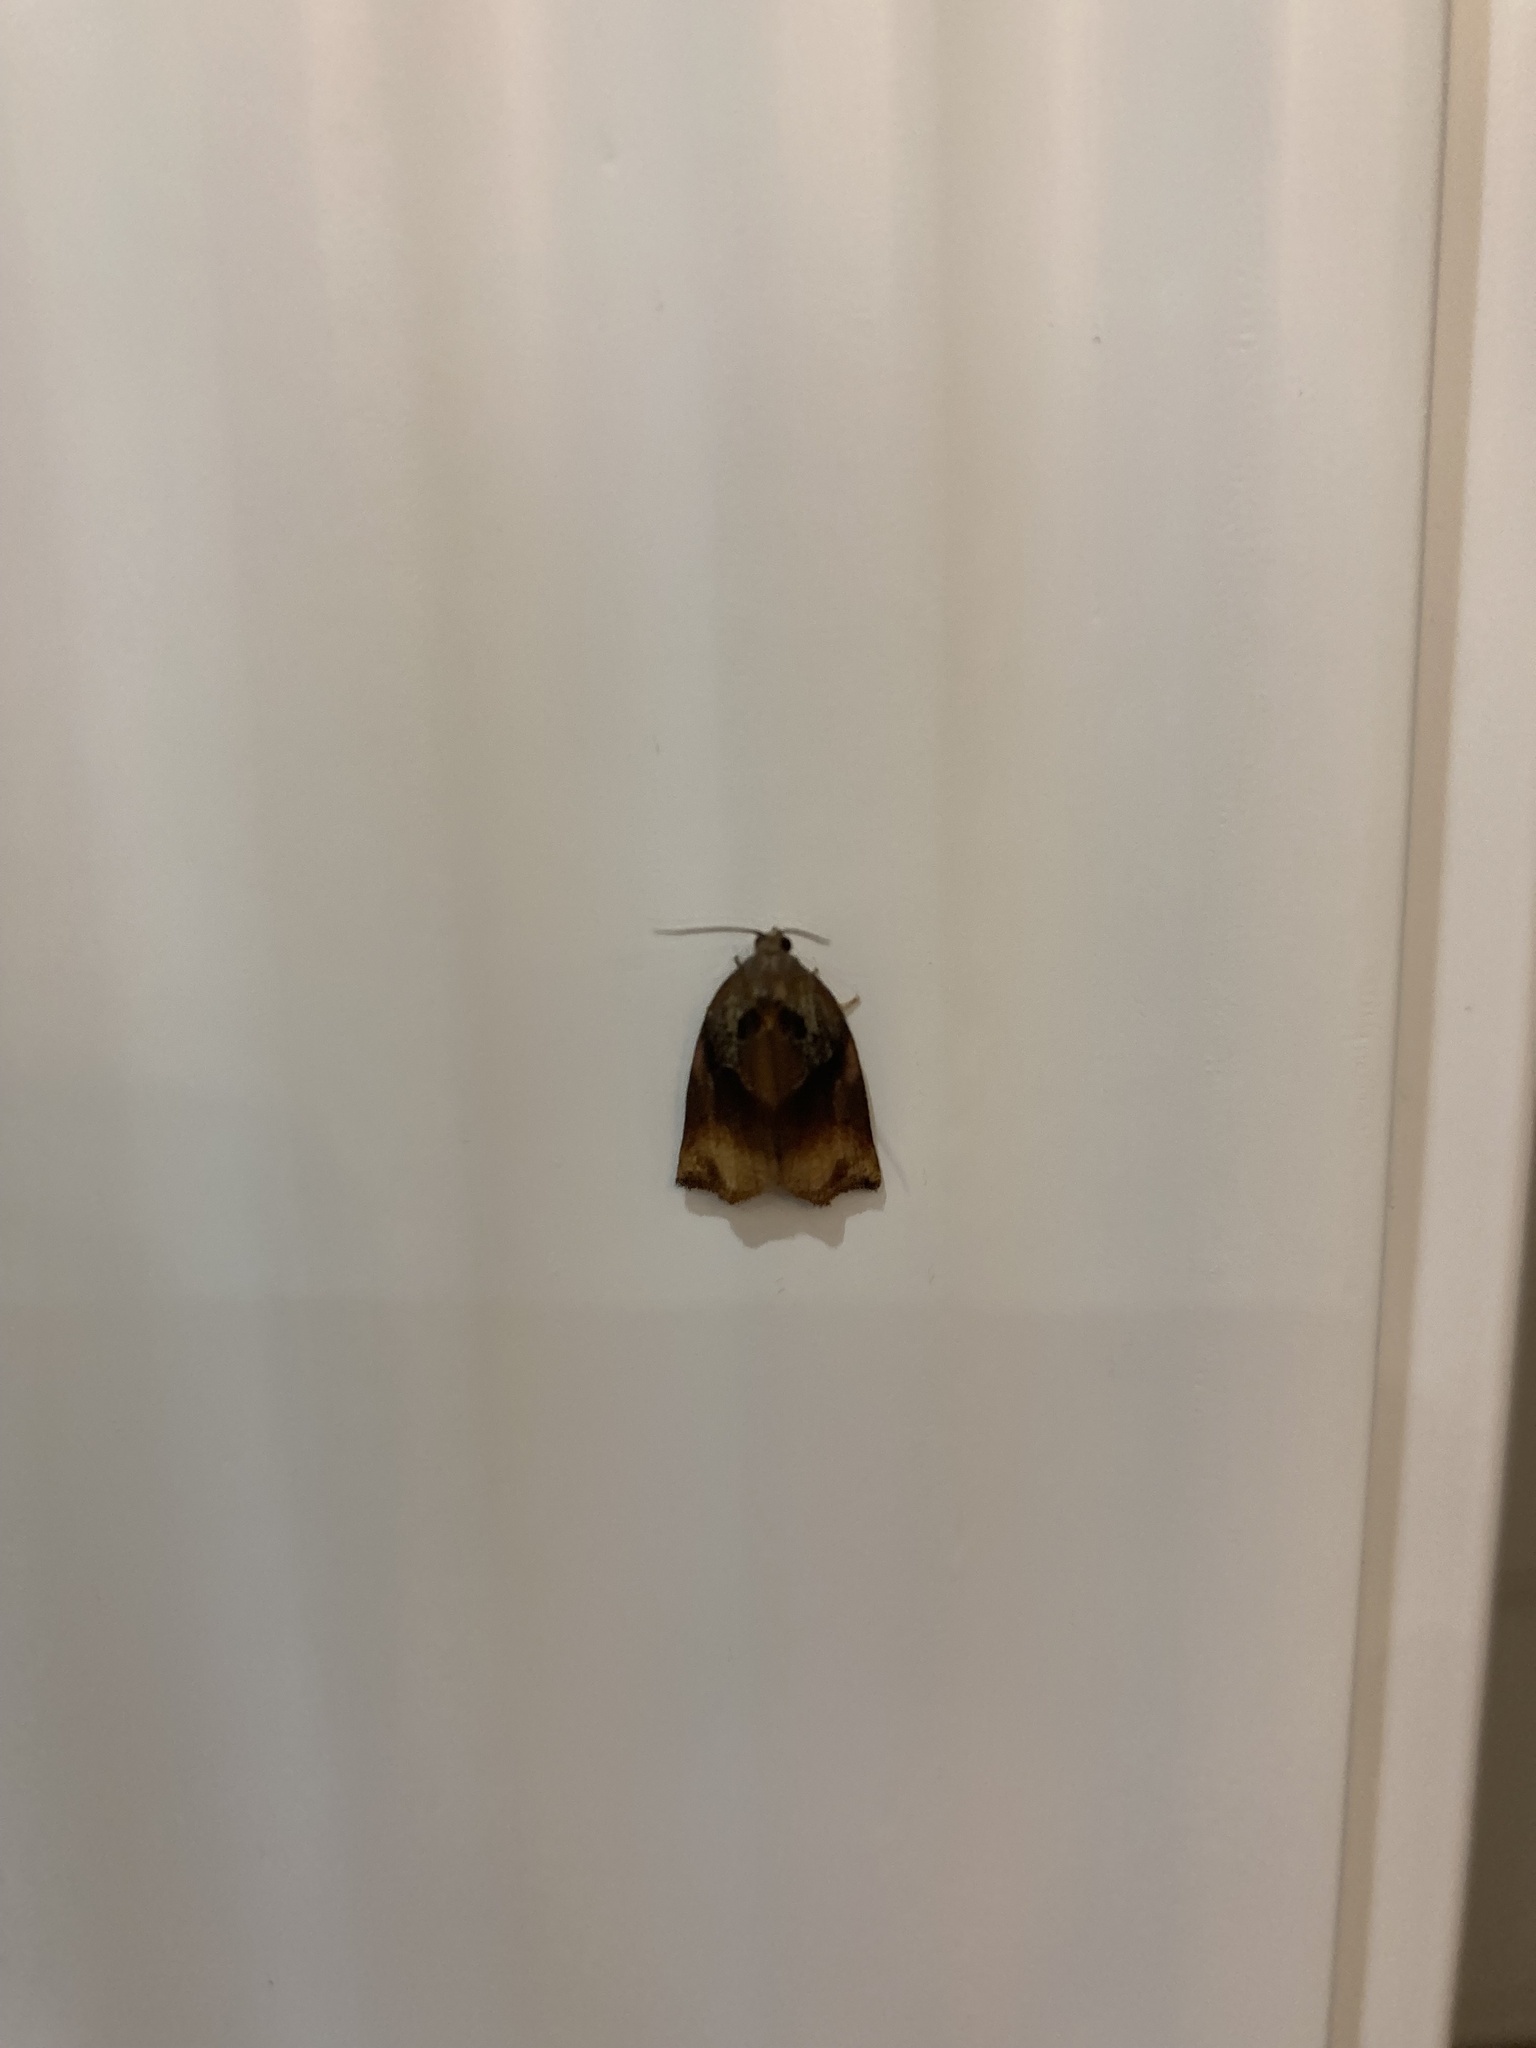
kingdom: Animalia
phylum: Arthropoda
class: Insecta
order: Lepidoptera
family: Tortricidae
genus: Archips
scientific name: Archips podana
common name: Large fruit-tree tortrix
